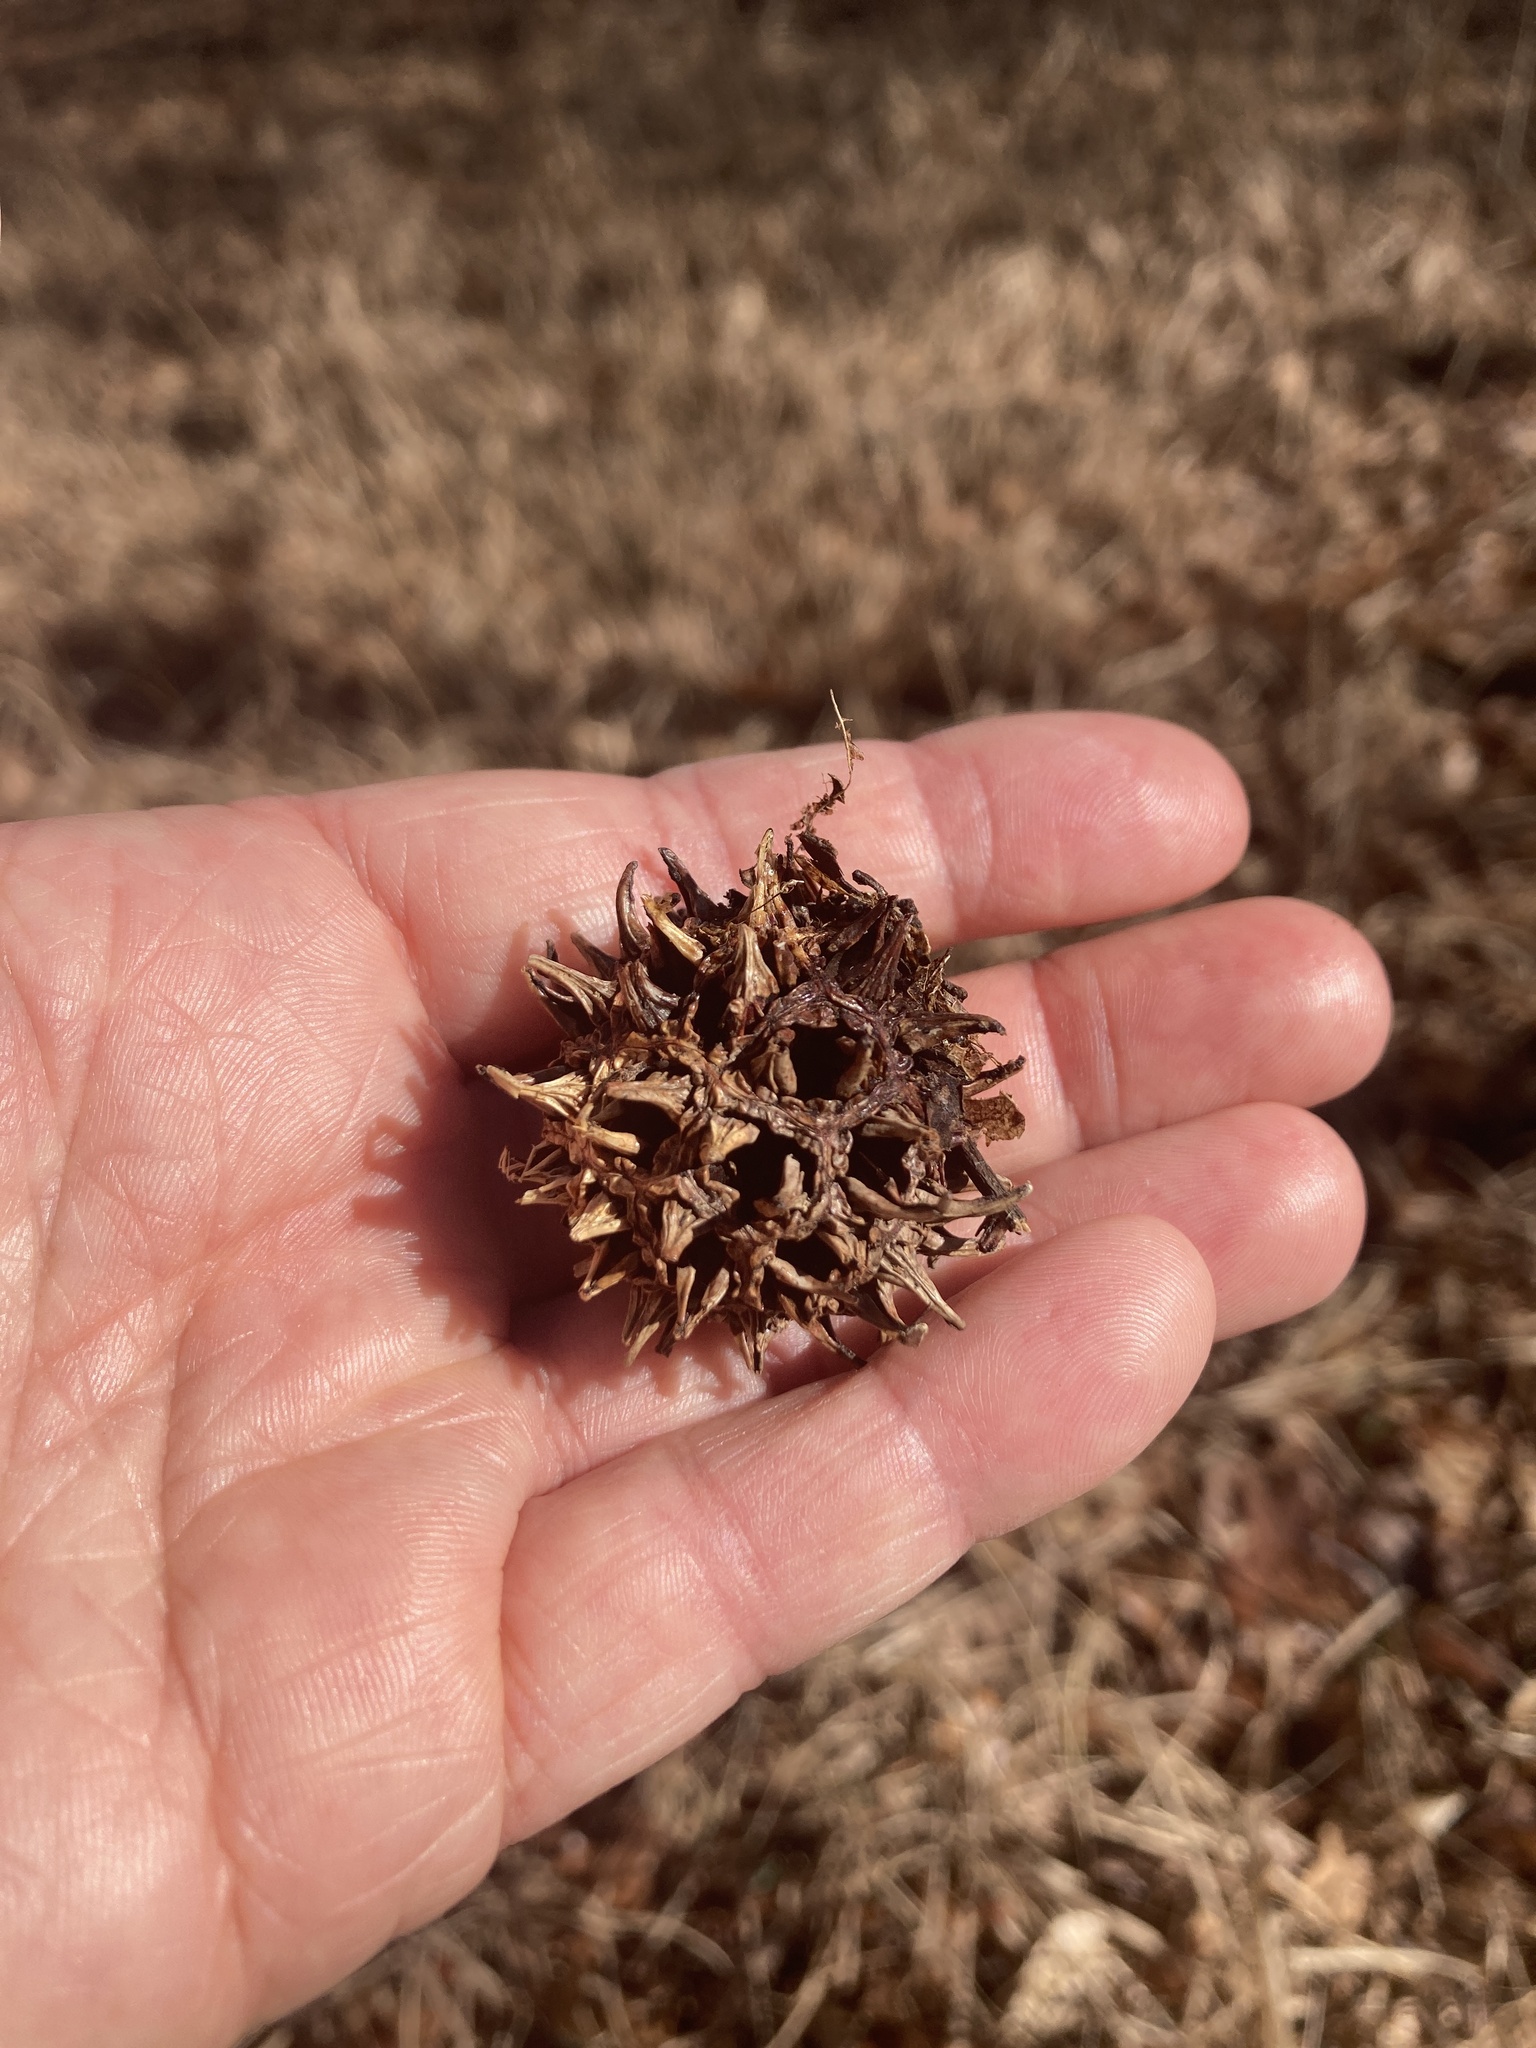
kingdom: Plantae
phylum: Tracheophyta
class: Magnoliopsida
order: Saxifragales
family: Altingiaceae
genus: Liquidambar
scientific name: Liquidambar styraciflua
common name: Sweet gum
